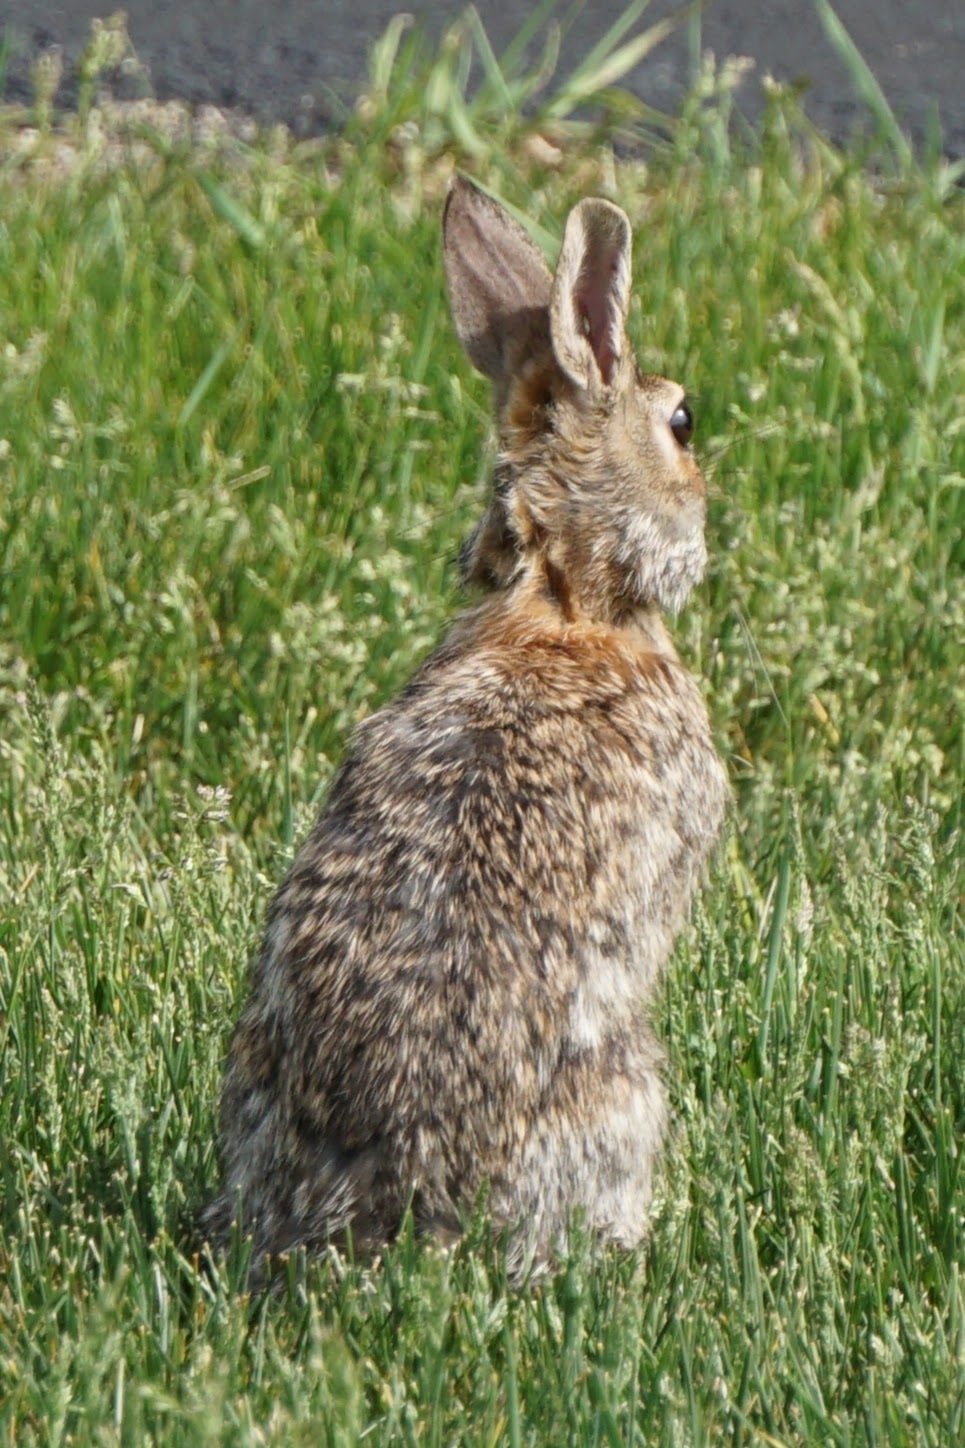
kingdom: Animalia
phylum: Chordata
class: Mammalia
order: Lagomorpha
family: Leporidae
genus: Sylvilagus
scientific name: Sylvilagus floridanus
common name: Eastern cottontail
